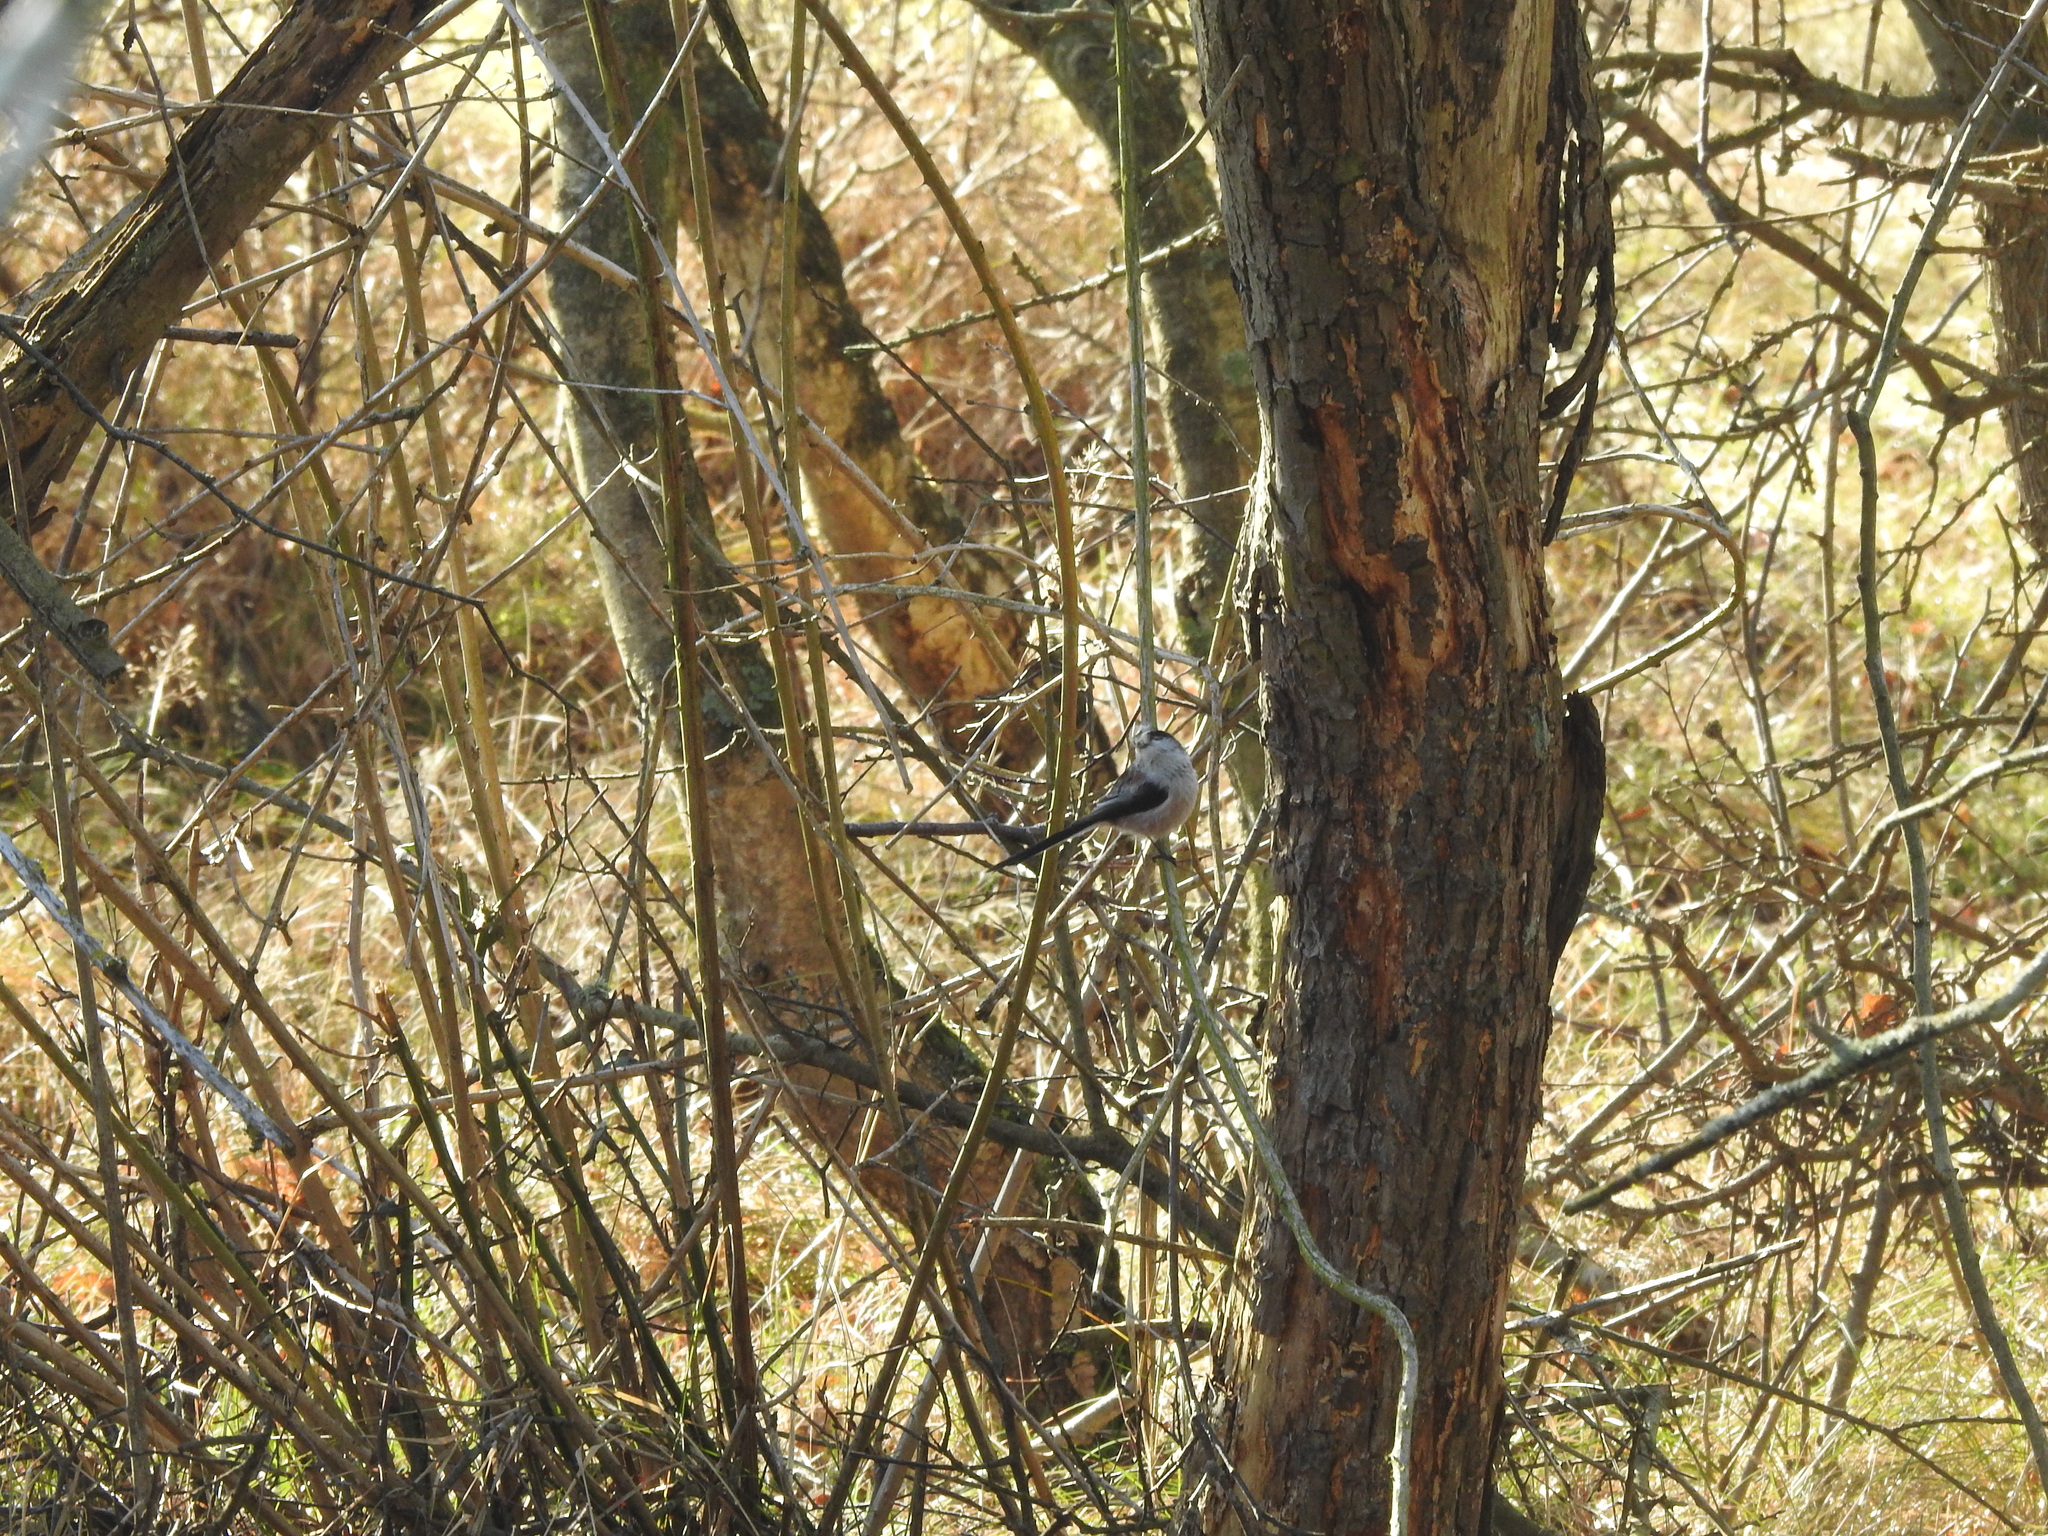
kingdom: Animalia
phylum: Chordata
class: Aves
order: Passeriformes
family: Aegithalidae
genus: Aegithalos
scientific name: Aegithalos caudatus
